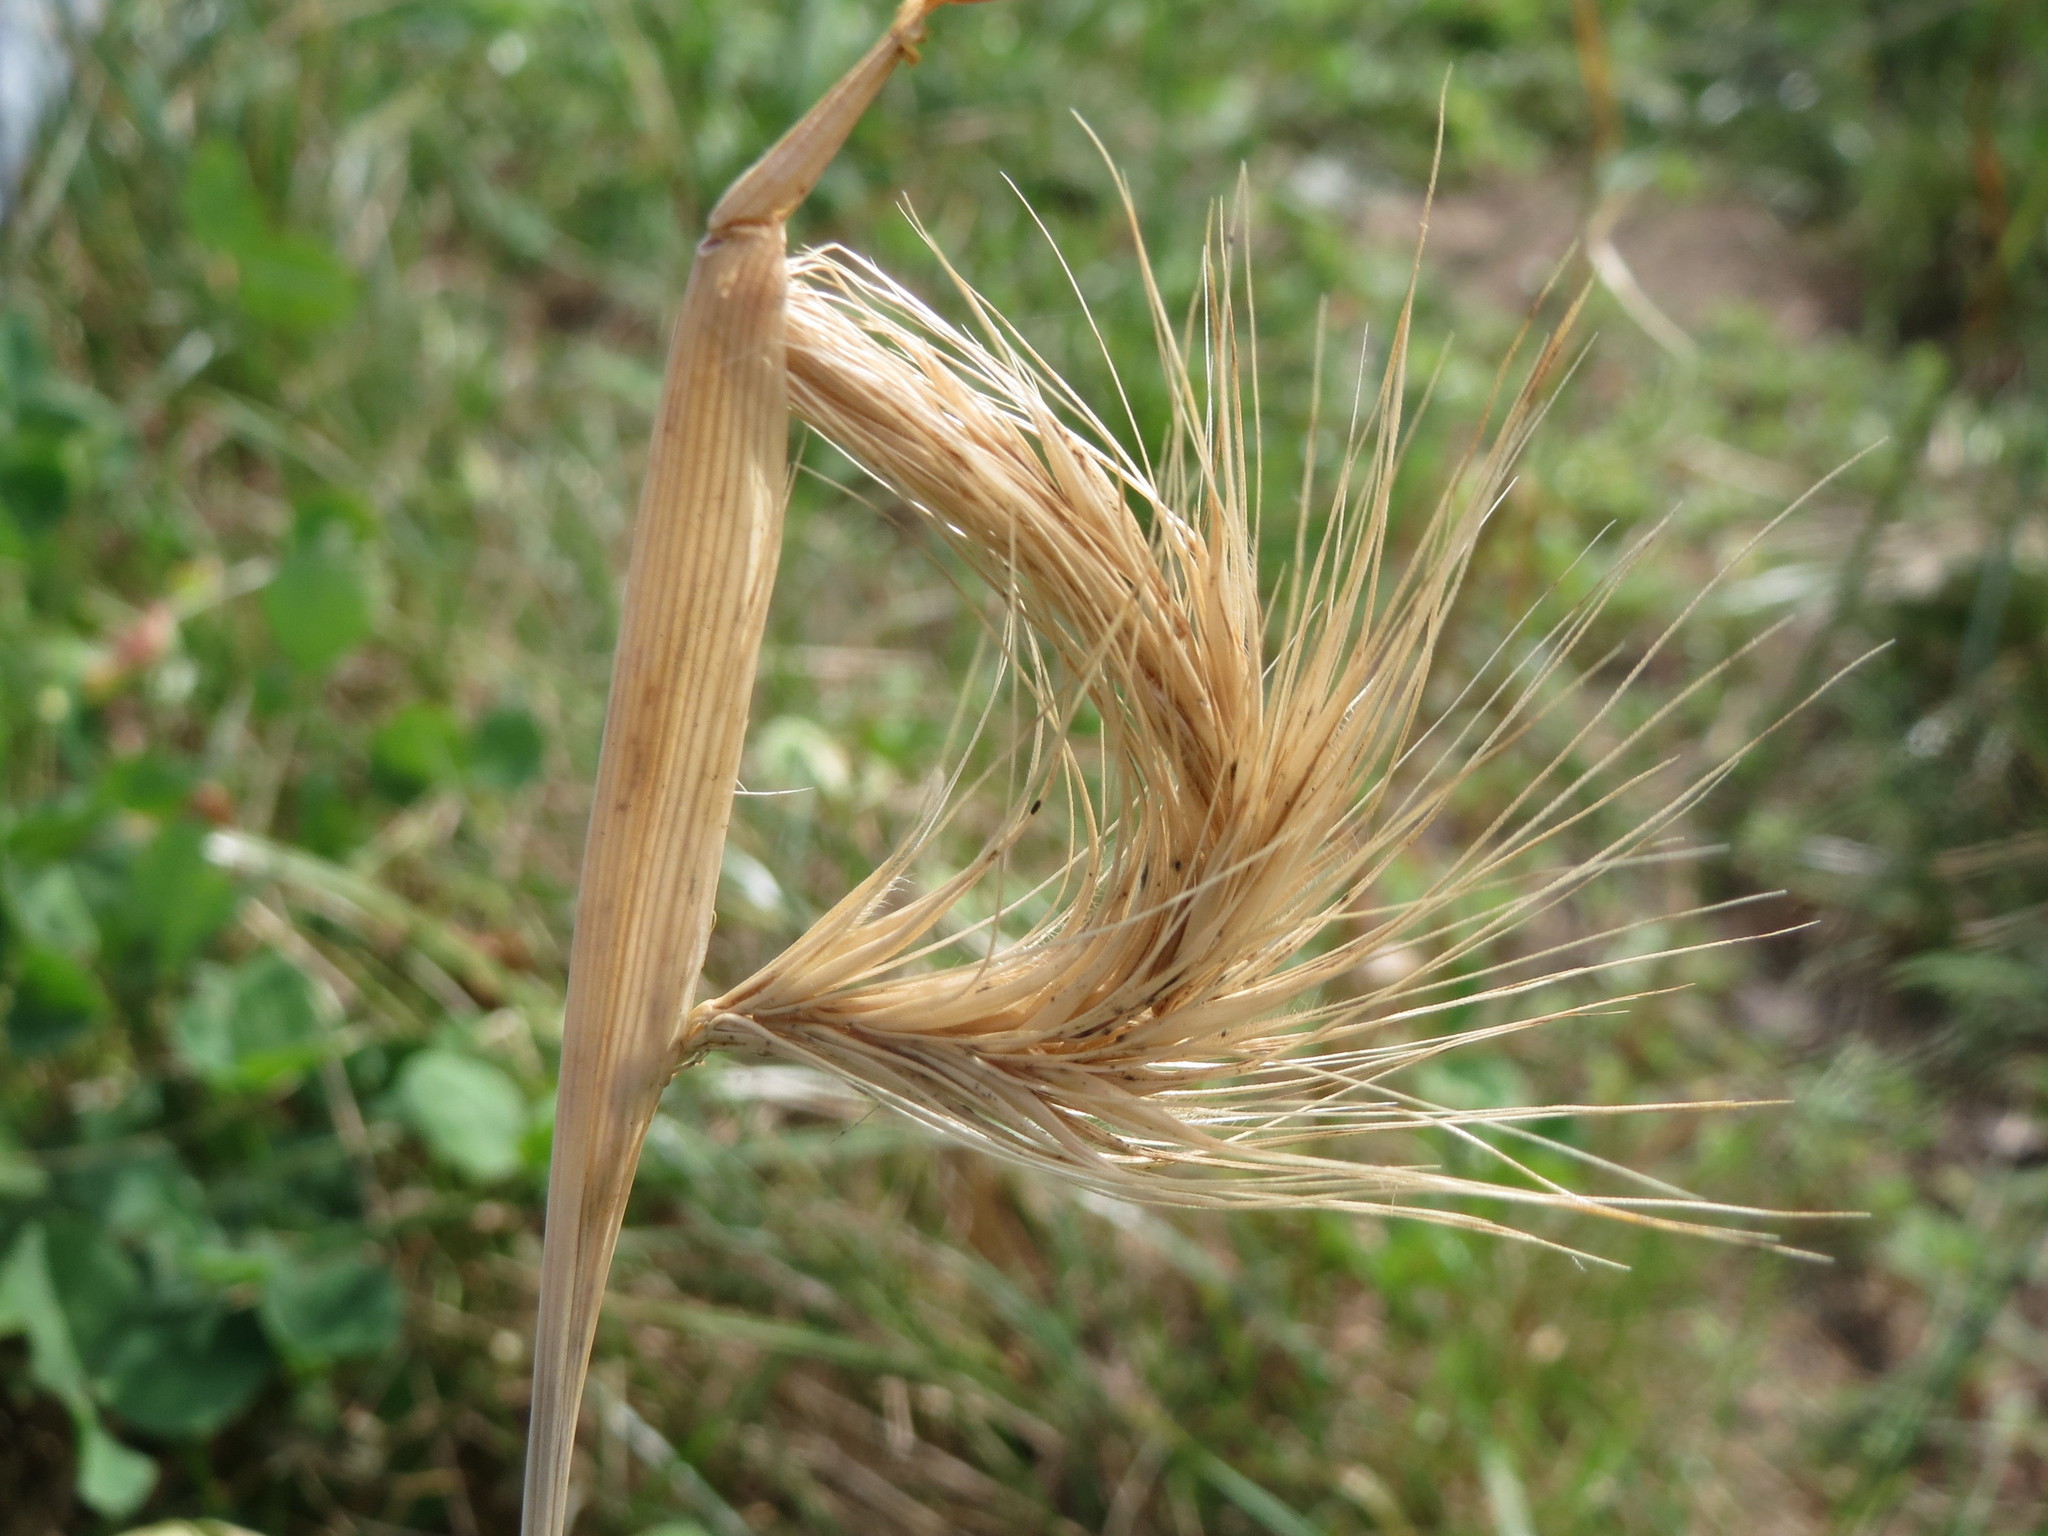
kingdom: Plantae
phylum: Tracheophyta
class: Liliopsida
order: Poales
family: Poaceae
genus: Hordeum
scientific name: Hordeum murinum
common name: Wall barley
